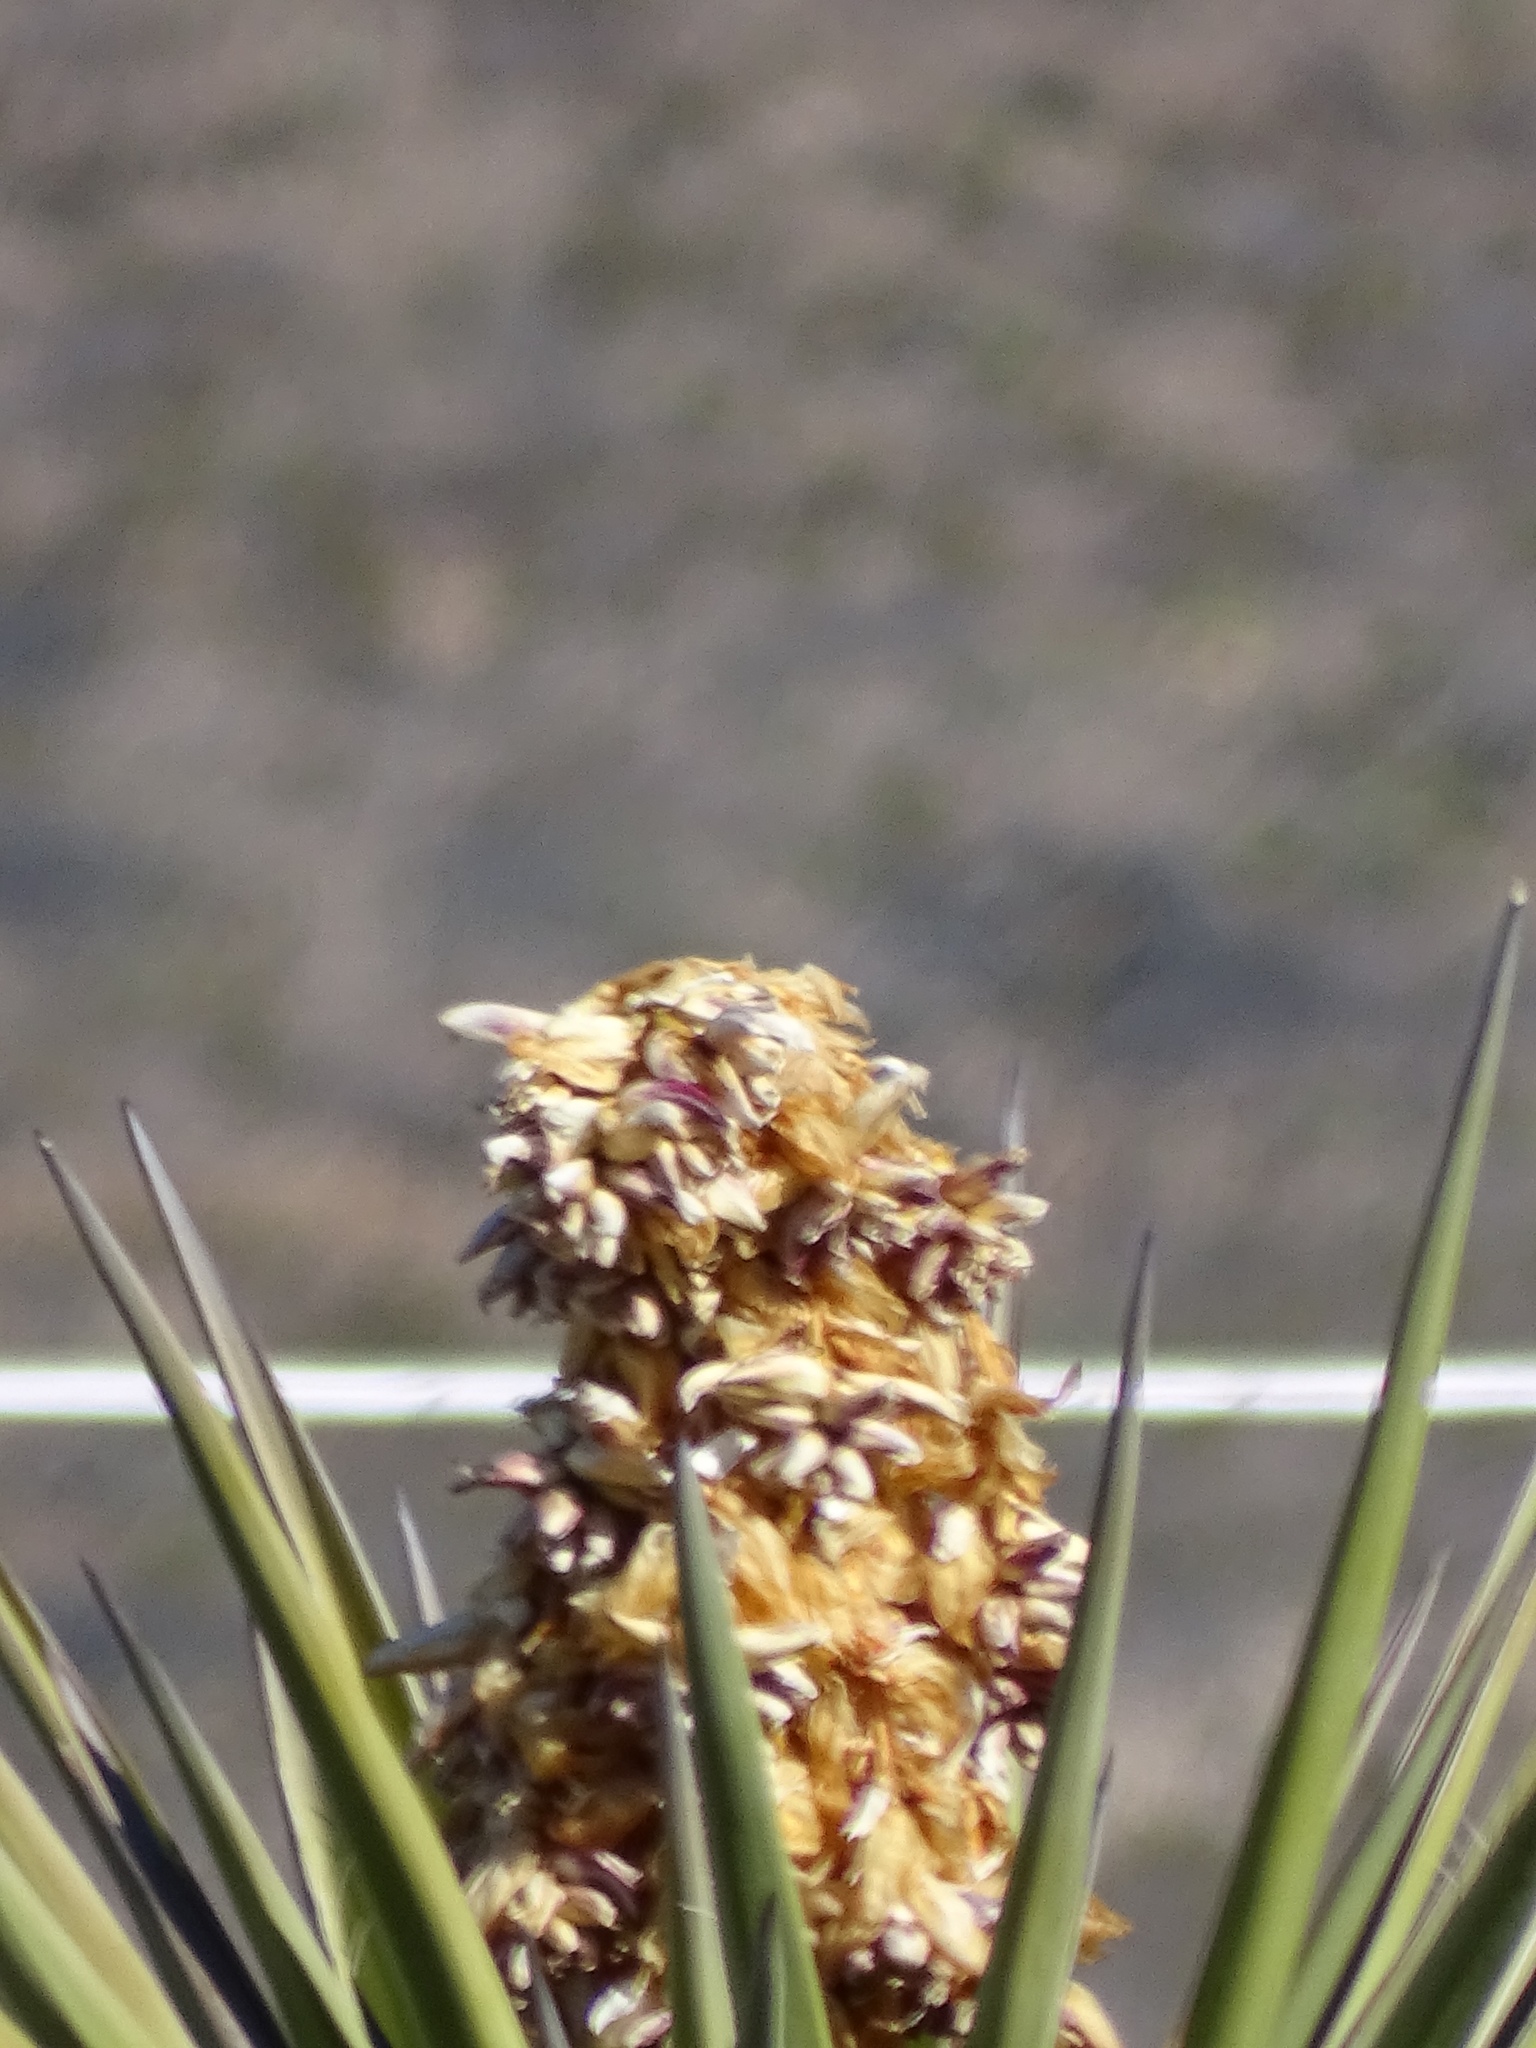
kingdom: Plantae
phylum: Tracheophyta
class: Liliopsida
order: Asparagales
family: Asparagaceae
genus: Yucca
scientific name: Yucca treculiana
